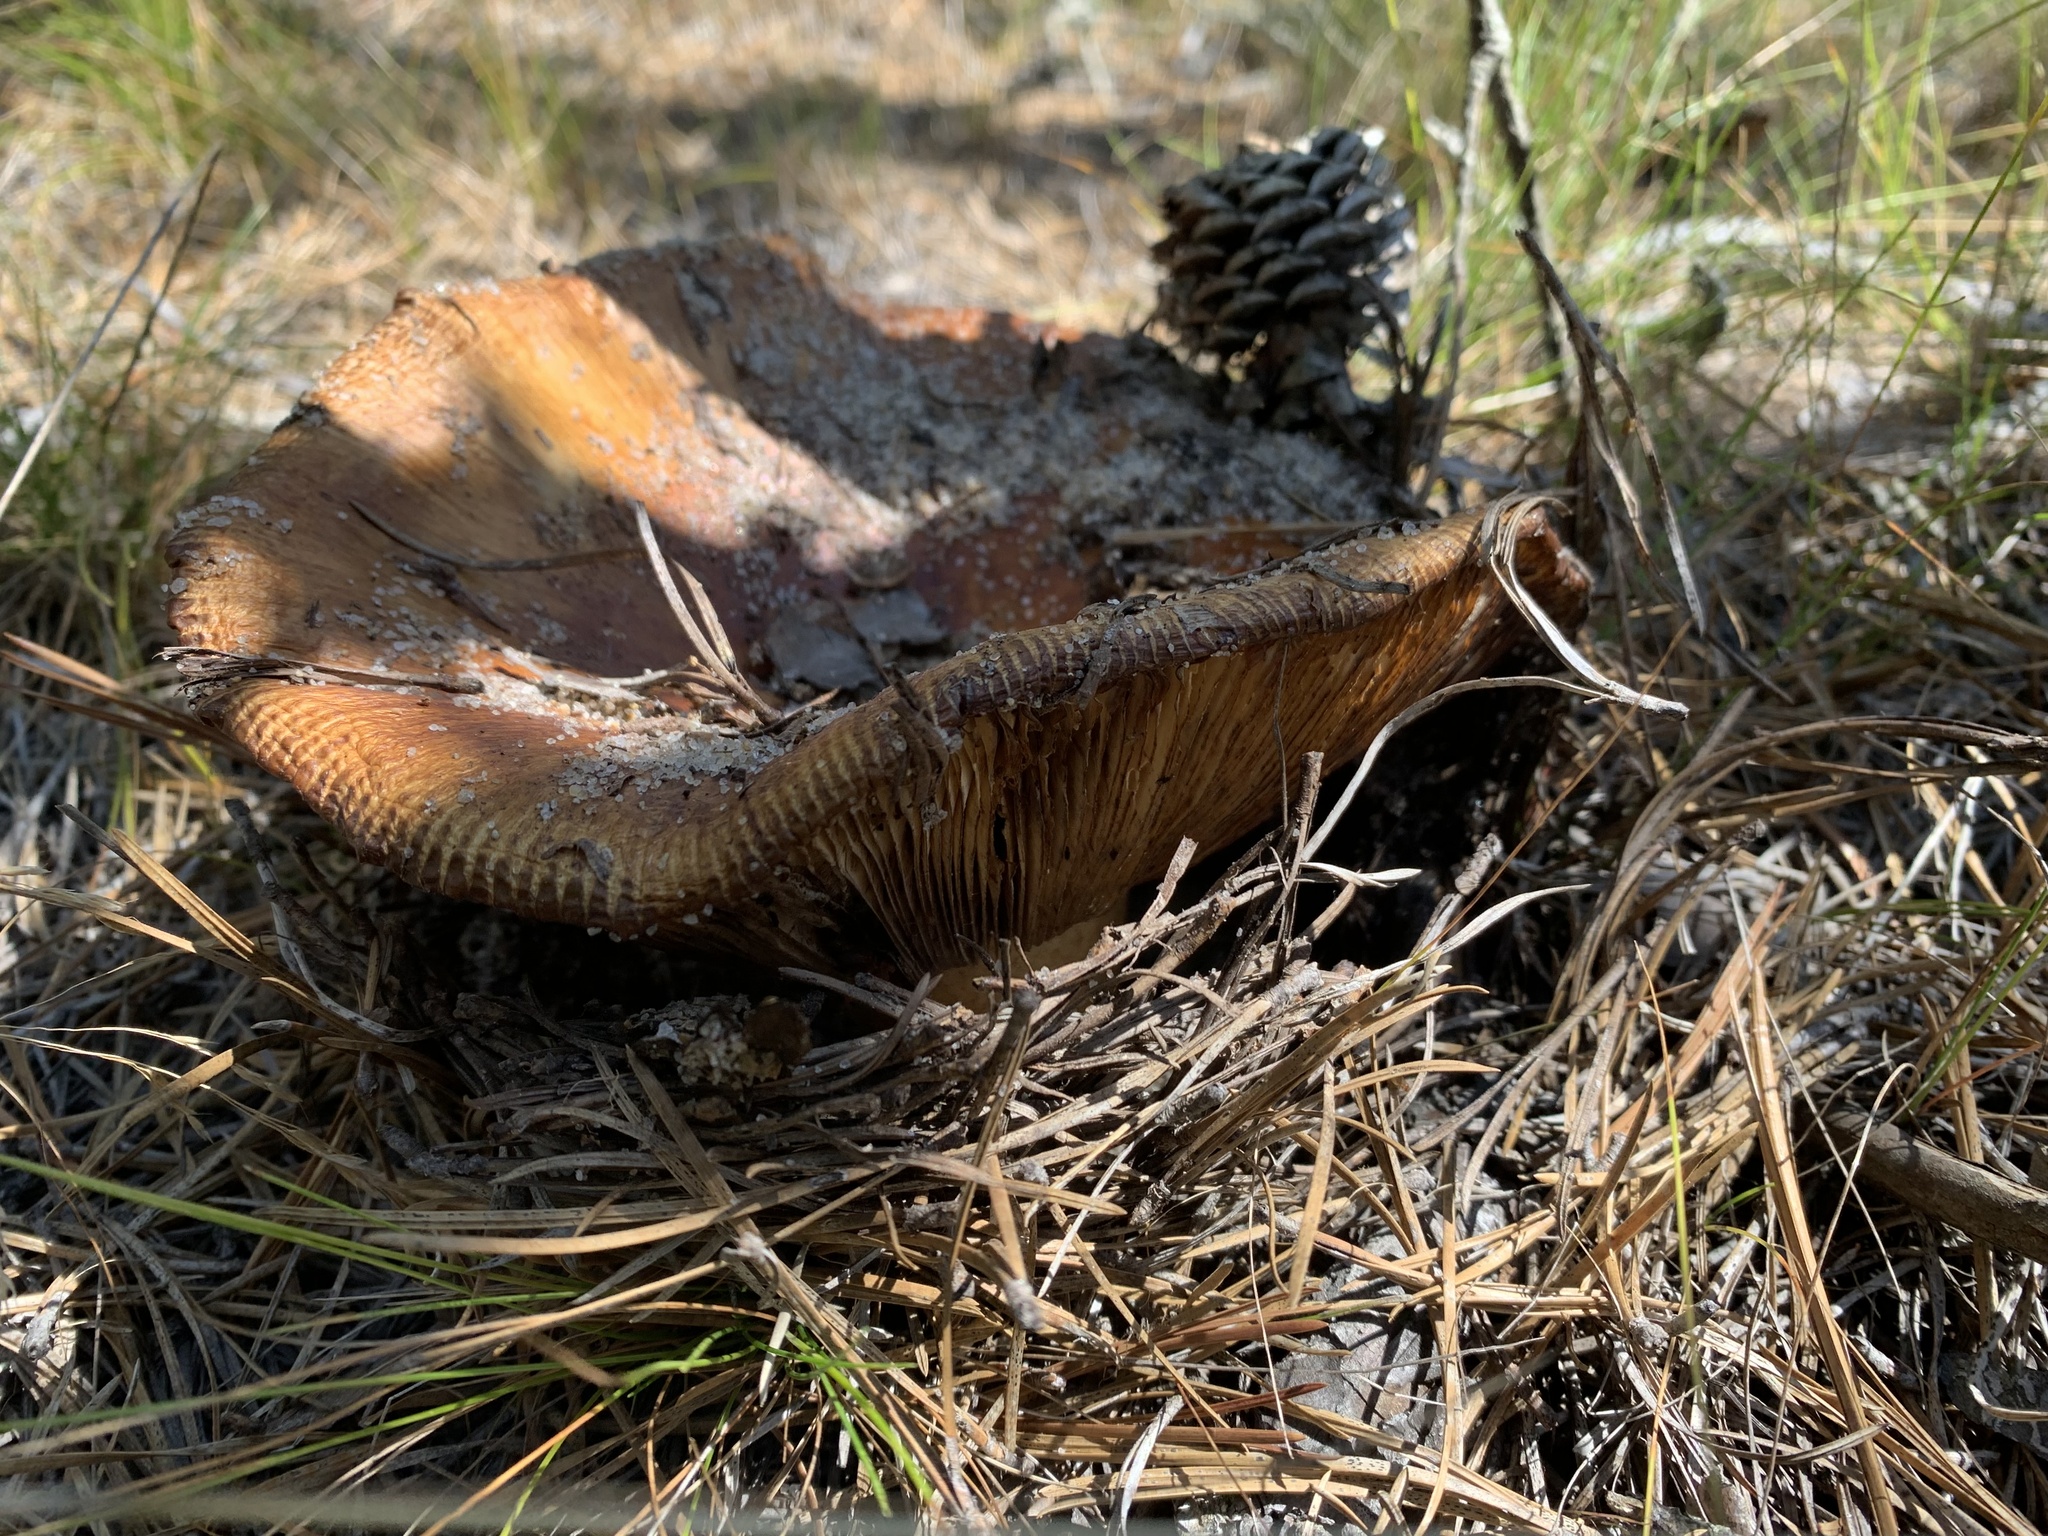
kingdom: Fungi
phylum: Basidiomycota
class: Agaricomycetes
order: Russulales
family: Russulaceae
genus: Russula
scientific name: Russula ventricosipes
